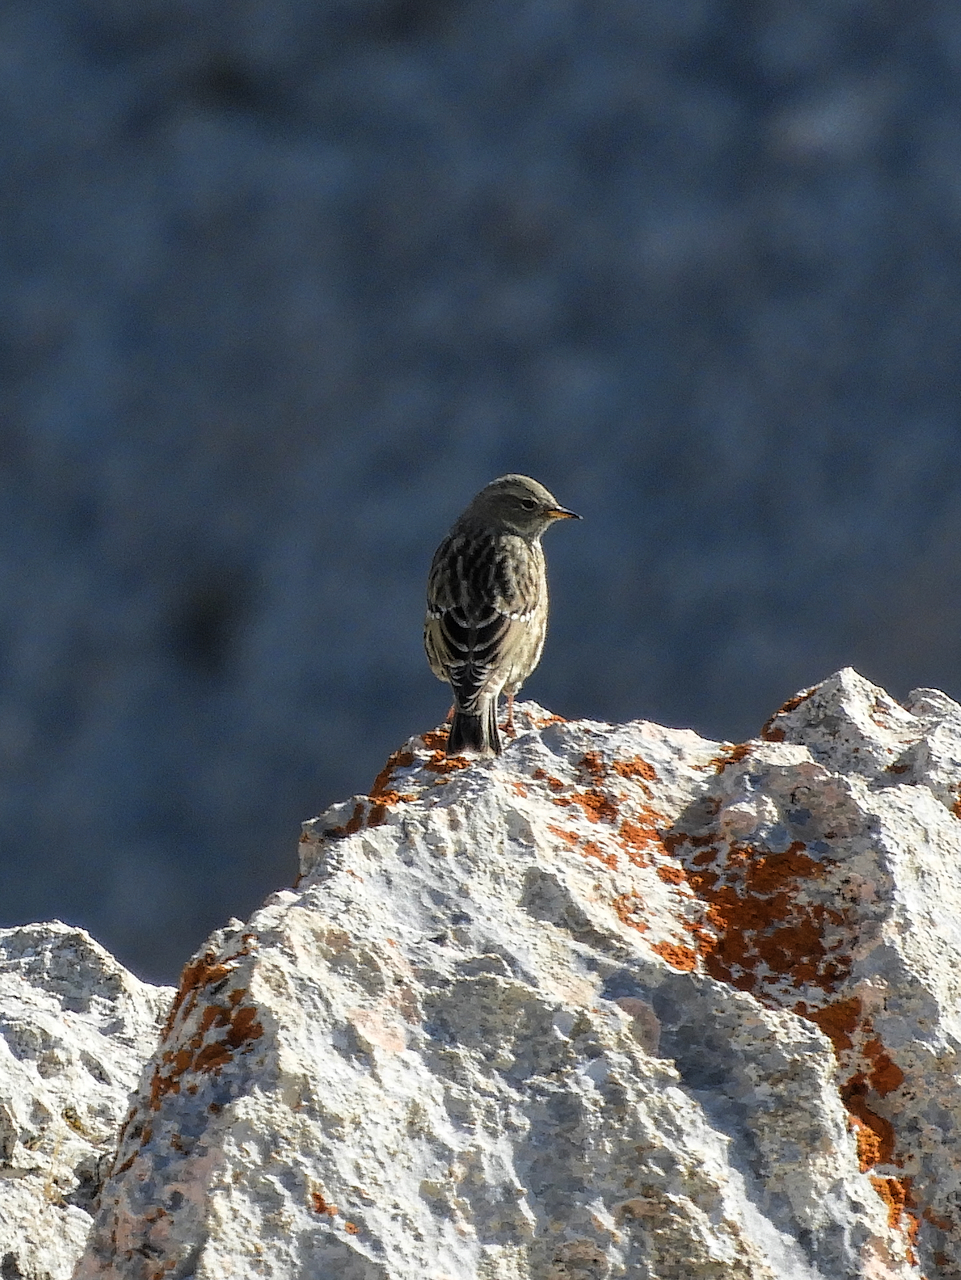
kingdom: Animalia
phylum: Chordata
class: Aves
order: Passeriformes
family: Prunellidae
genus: Prunella
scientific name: Prunella collaris
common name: Alpine accentor
